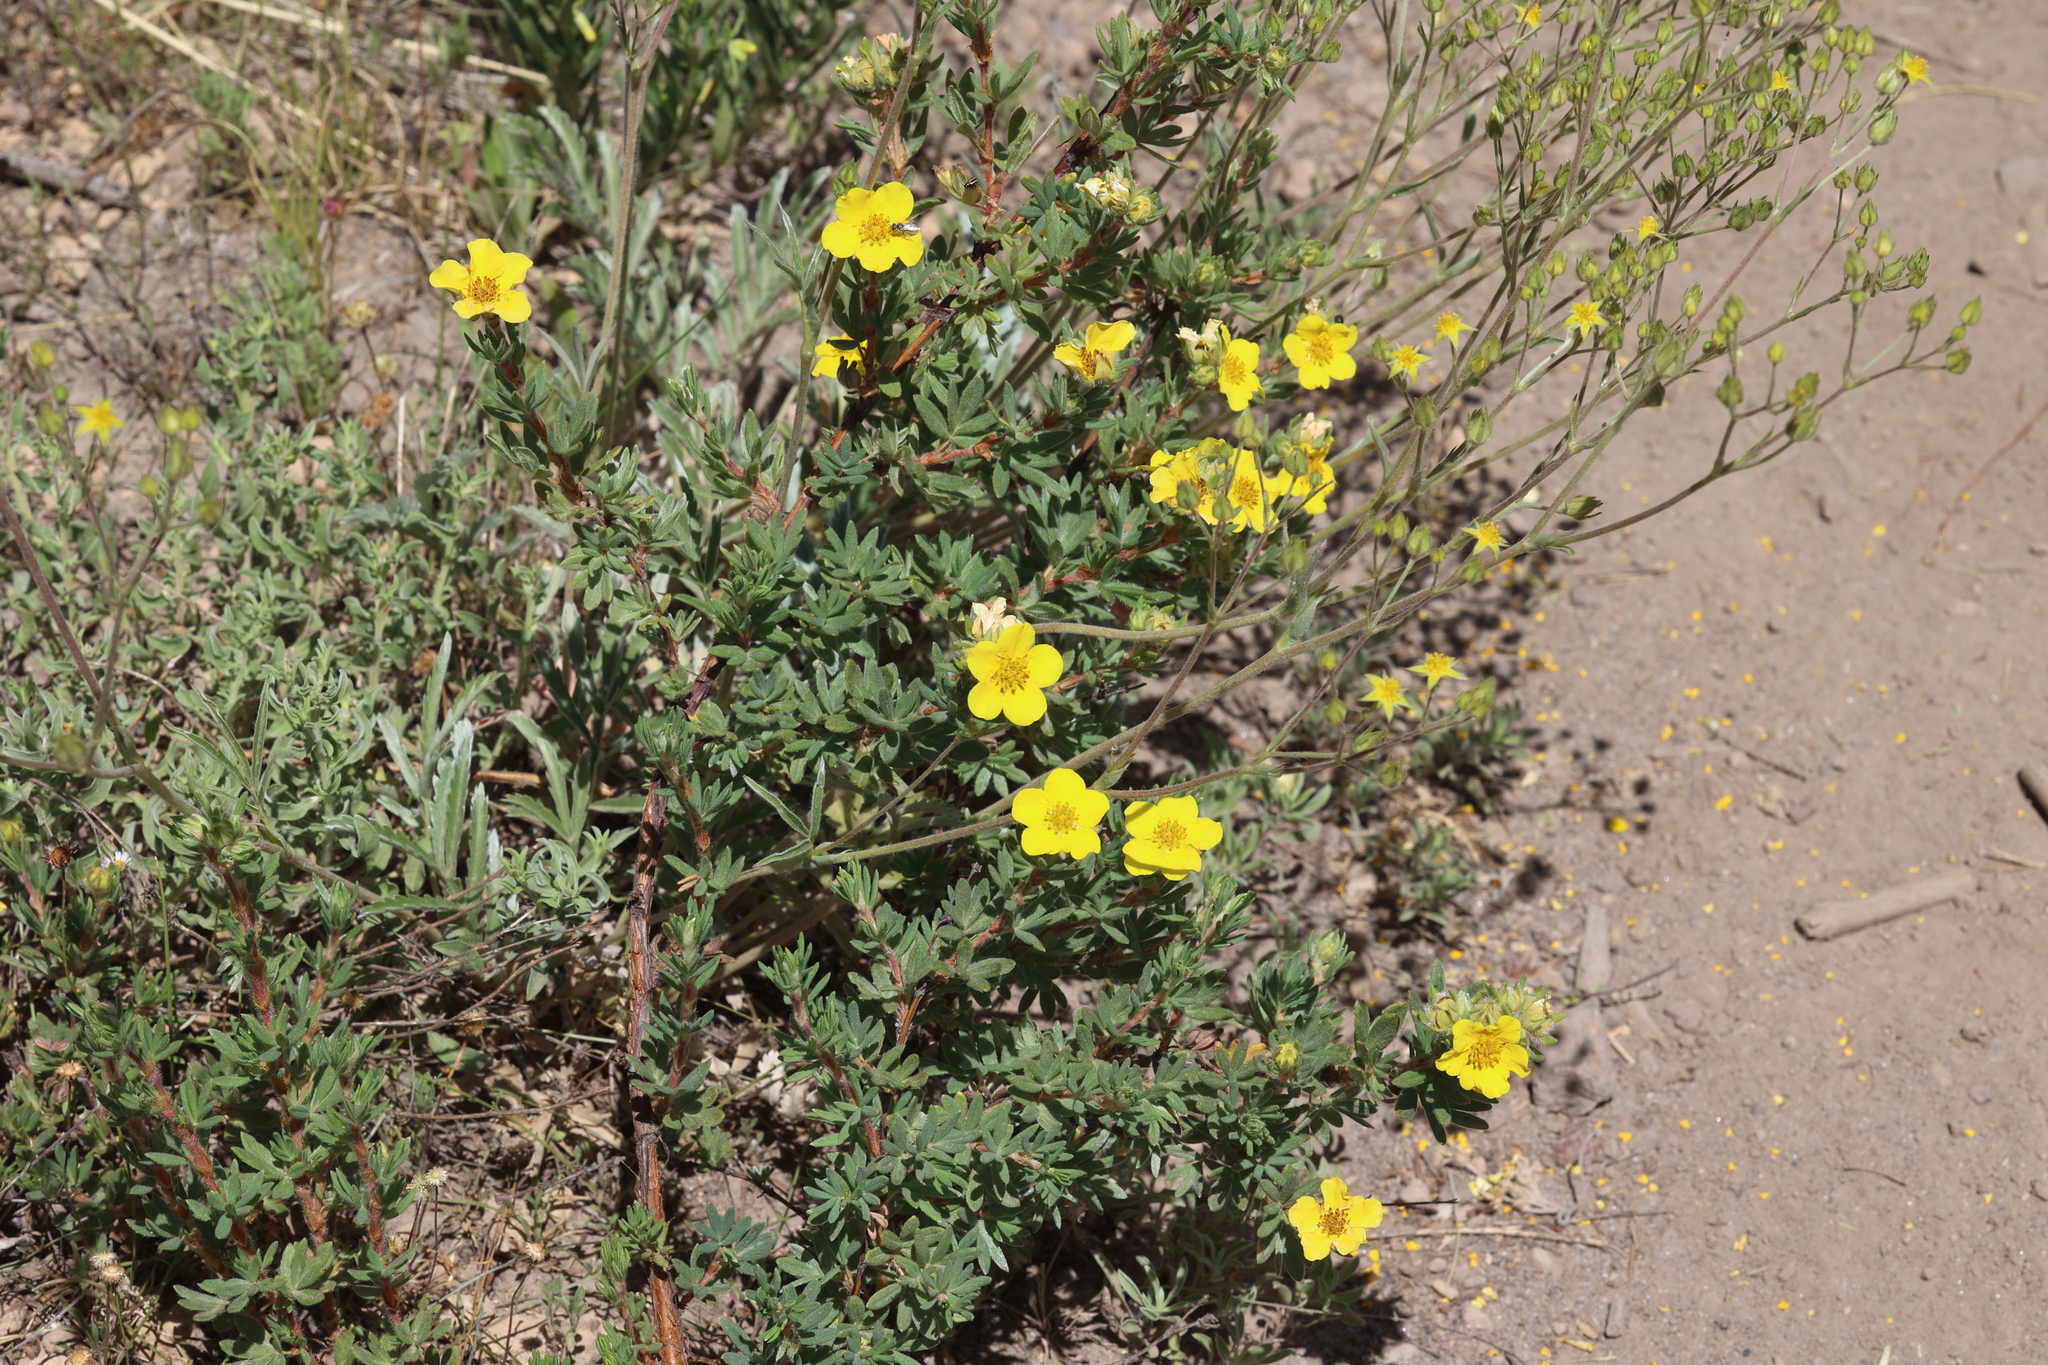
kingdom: Plantae
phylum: Tracheophyta
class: Magnoliopsida
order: Rosales
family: Rosaceae
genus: Dasiphora
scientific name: Dasiphora fruticosa
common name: Shrubby cinquefoil
